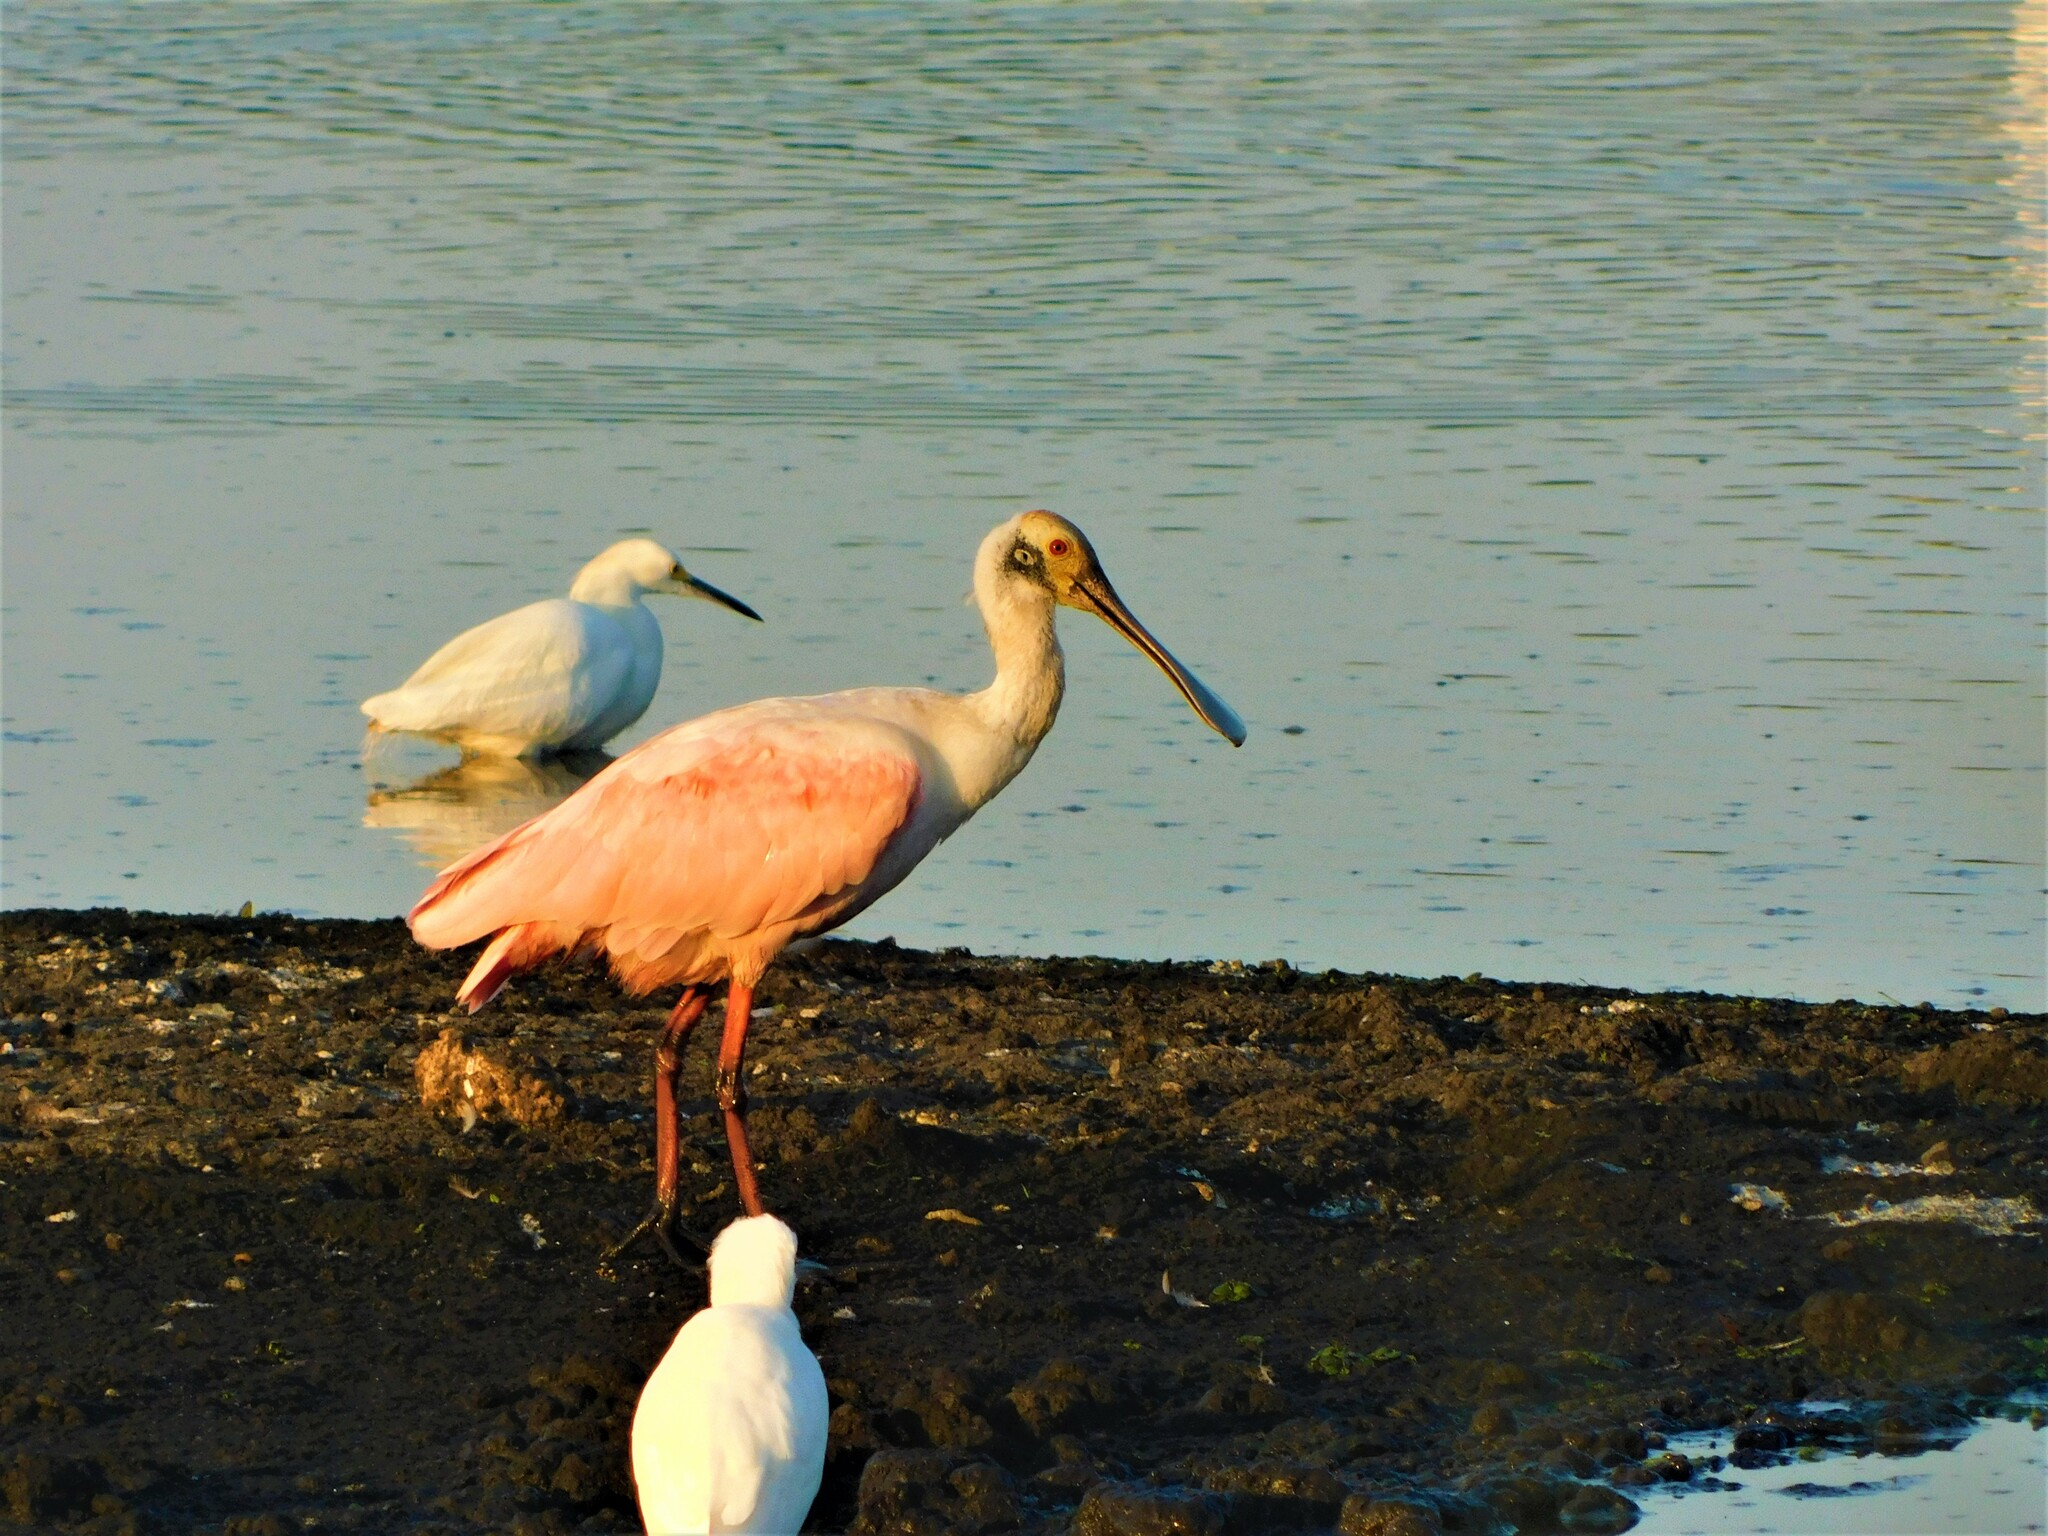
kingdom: Animalia
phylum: Chordata
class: Aves
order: Pelecaniformes
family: Threskiornithidae
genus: Platalea
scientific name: Platalea ajaja
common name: Roseate spoonbill
